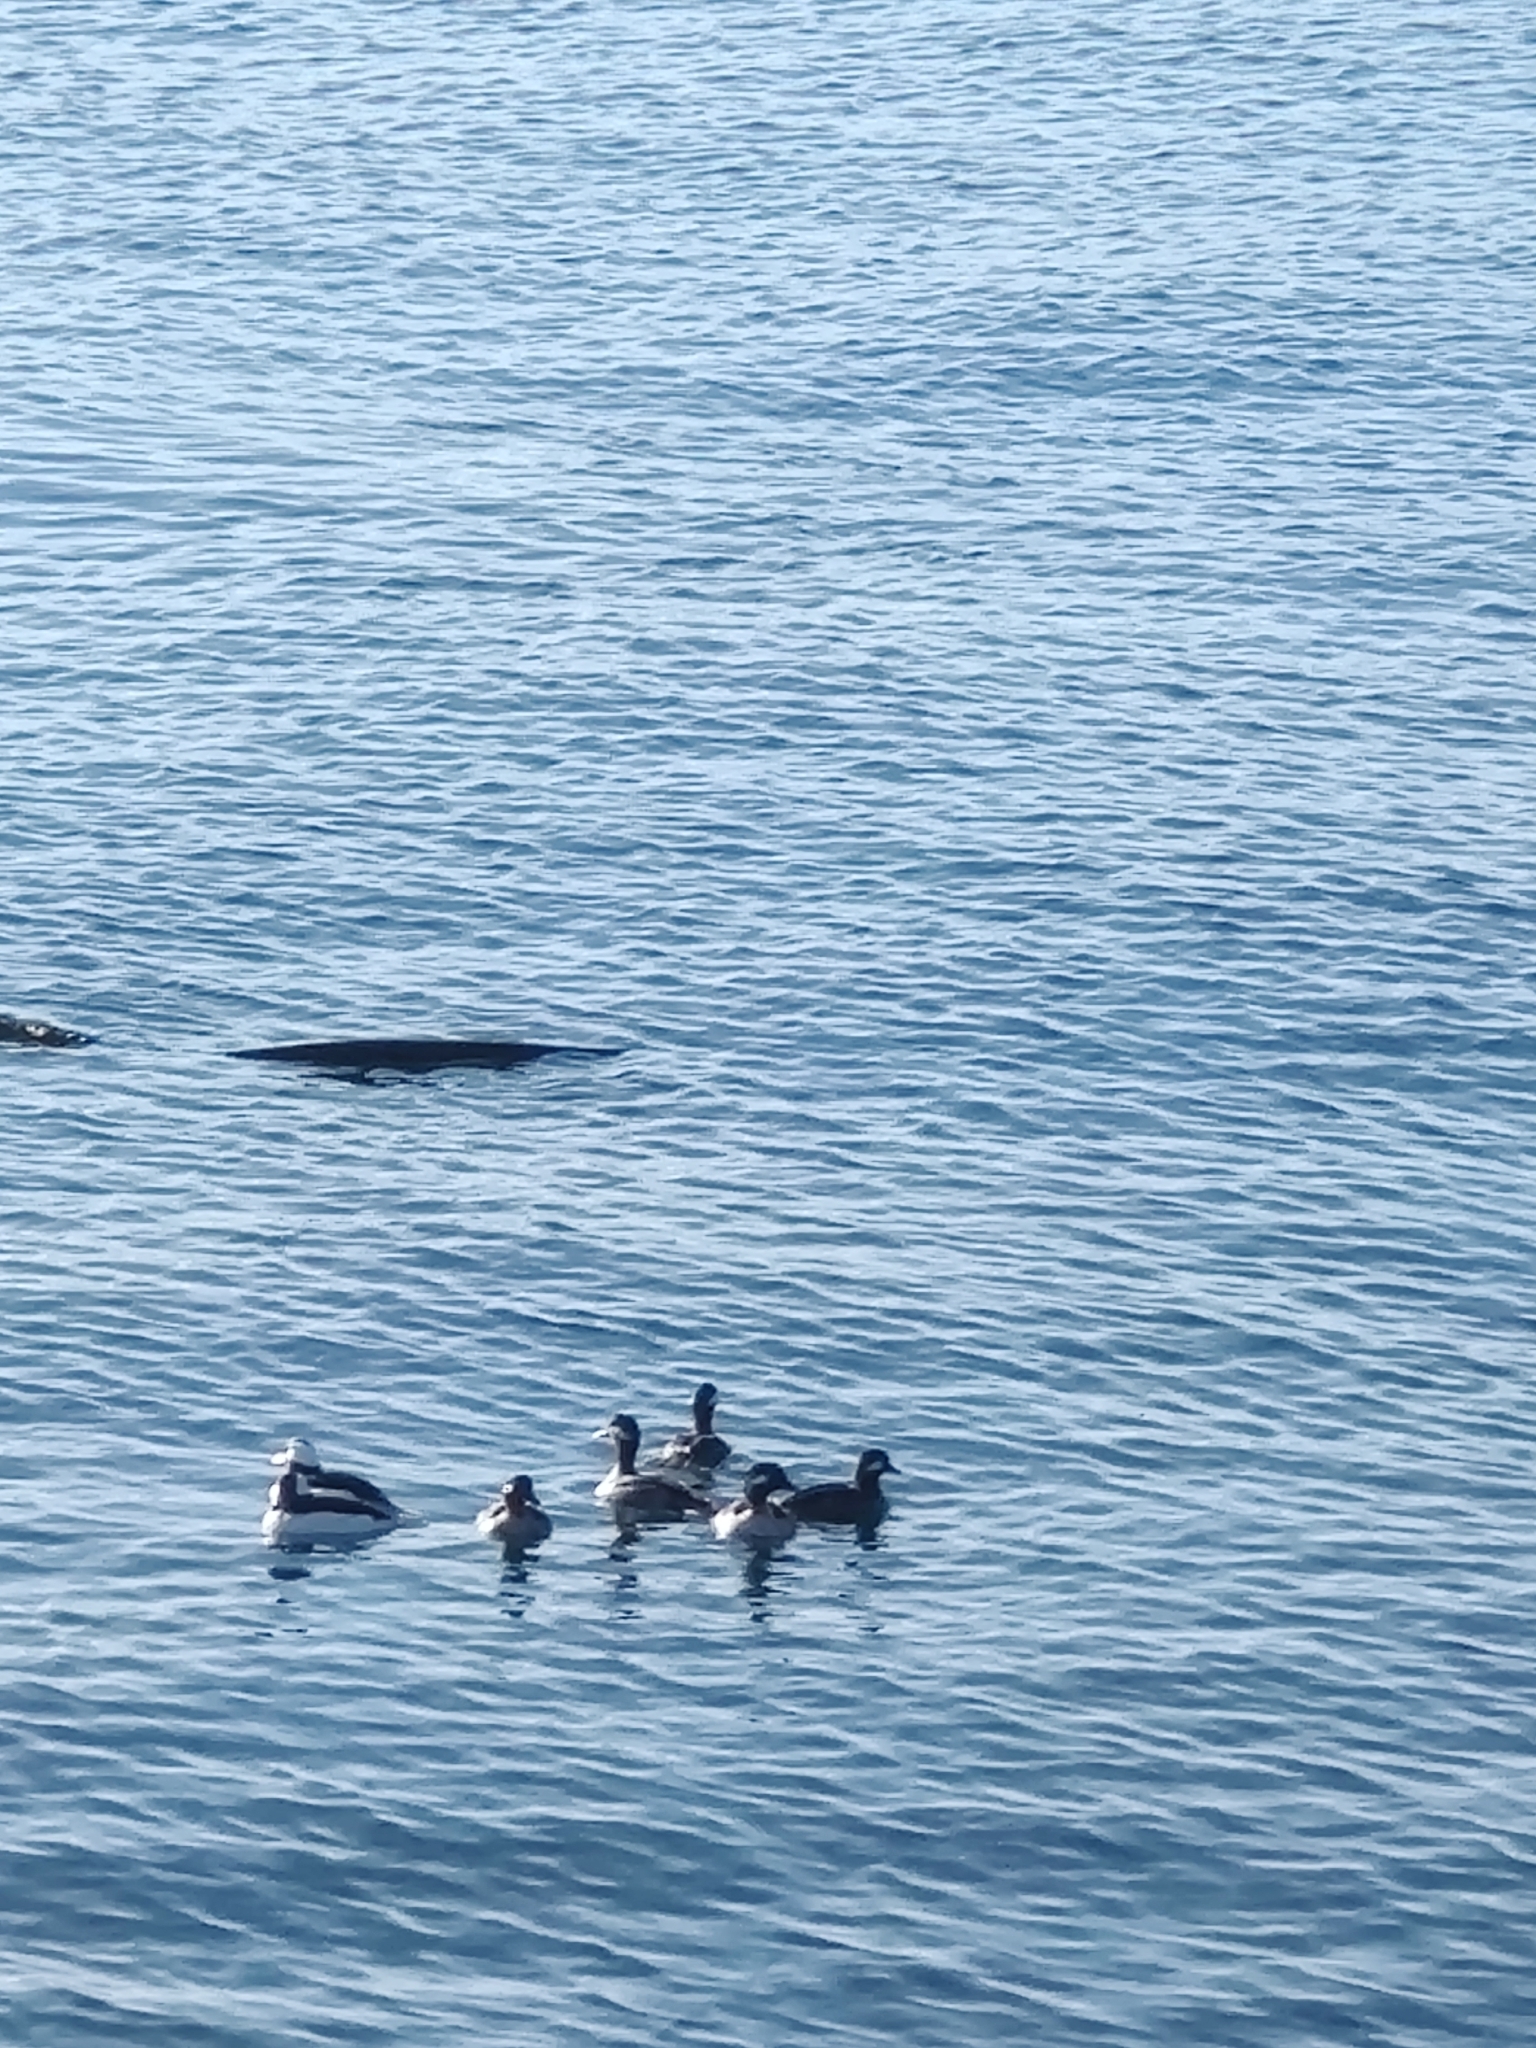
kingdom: Animalia
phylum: Chordata
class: Aves
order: Anseriformes
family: Anatidae
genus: Bucephala
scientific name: Bucephala albeola
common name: Bufflehead
